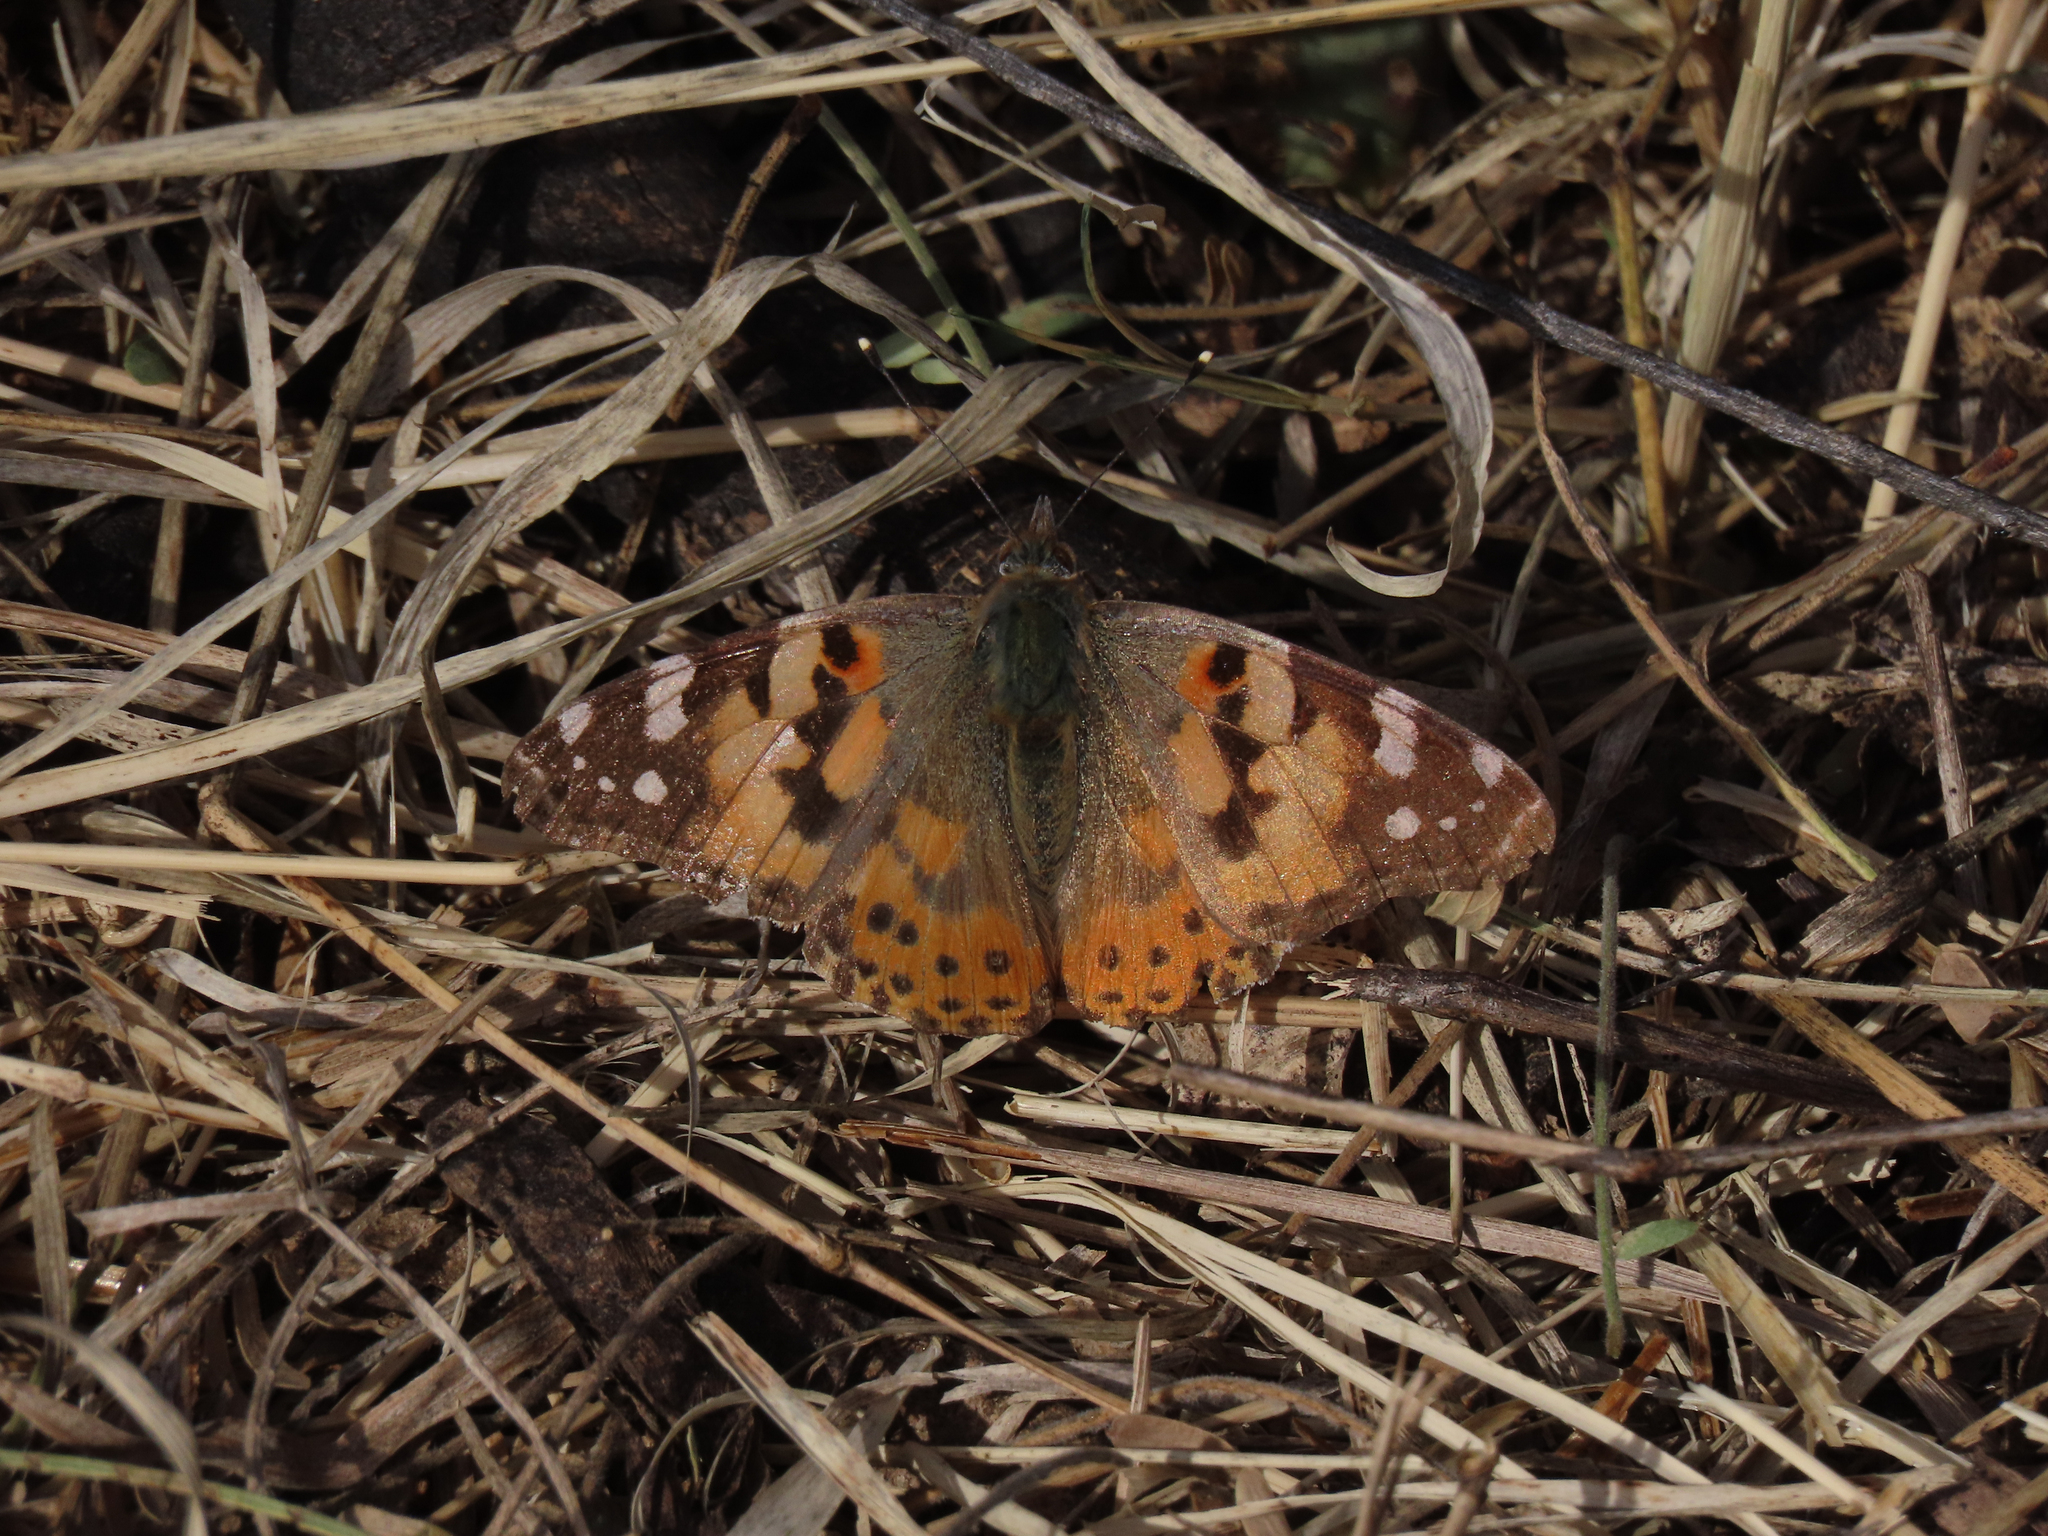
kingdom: Animalia
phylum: Arthropoda
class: Insecta
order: Lepidoptera
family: Nymphalidae
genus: Vanessa
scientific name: Vanessa cardui
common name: Painted lady
